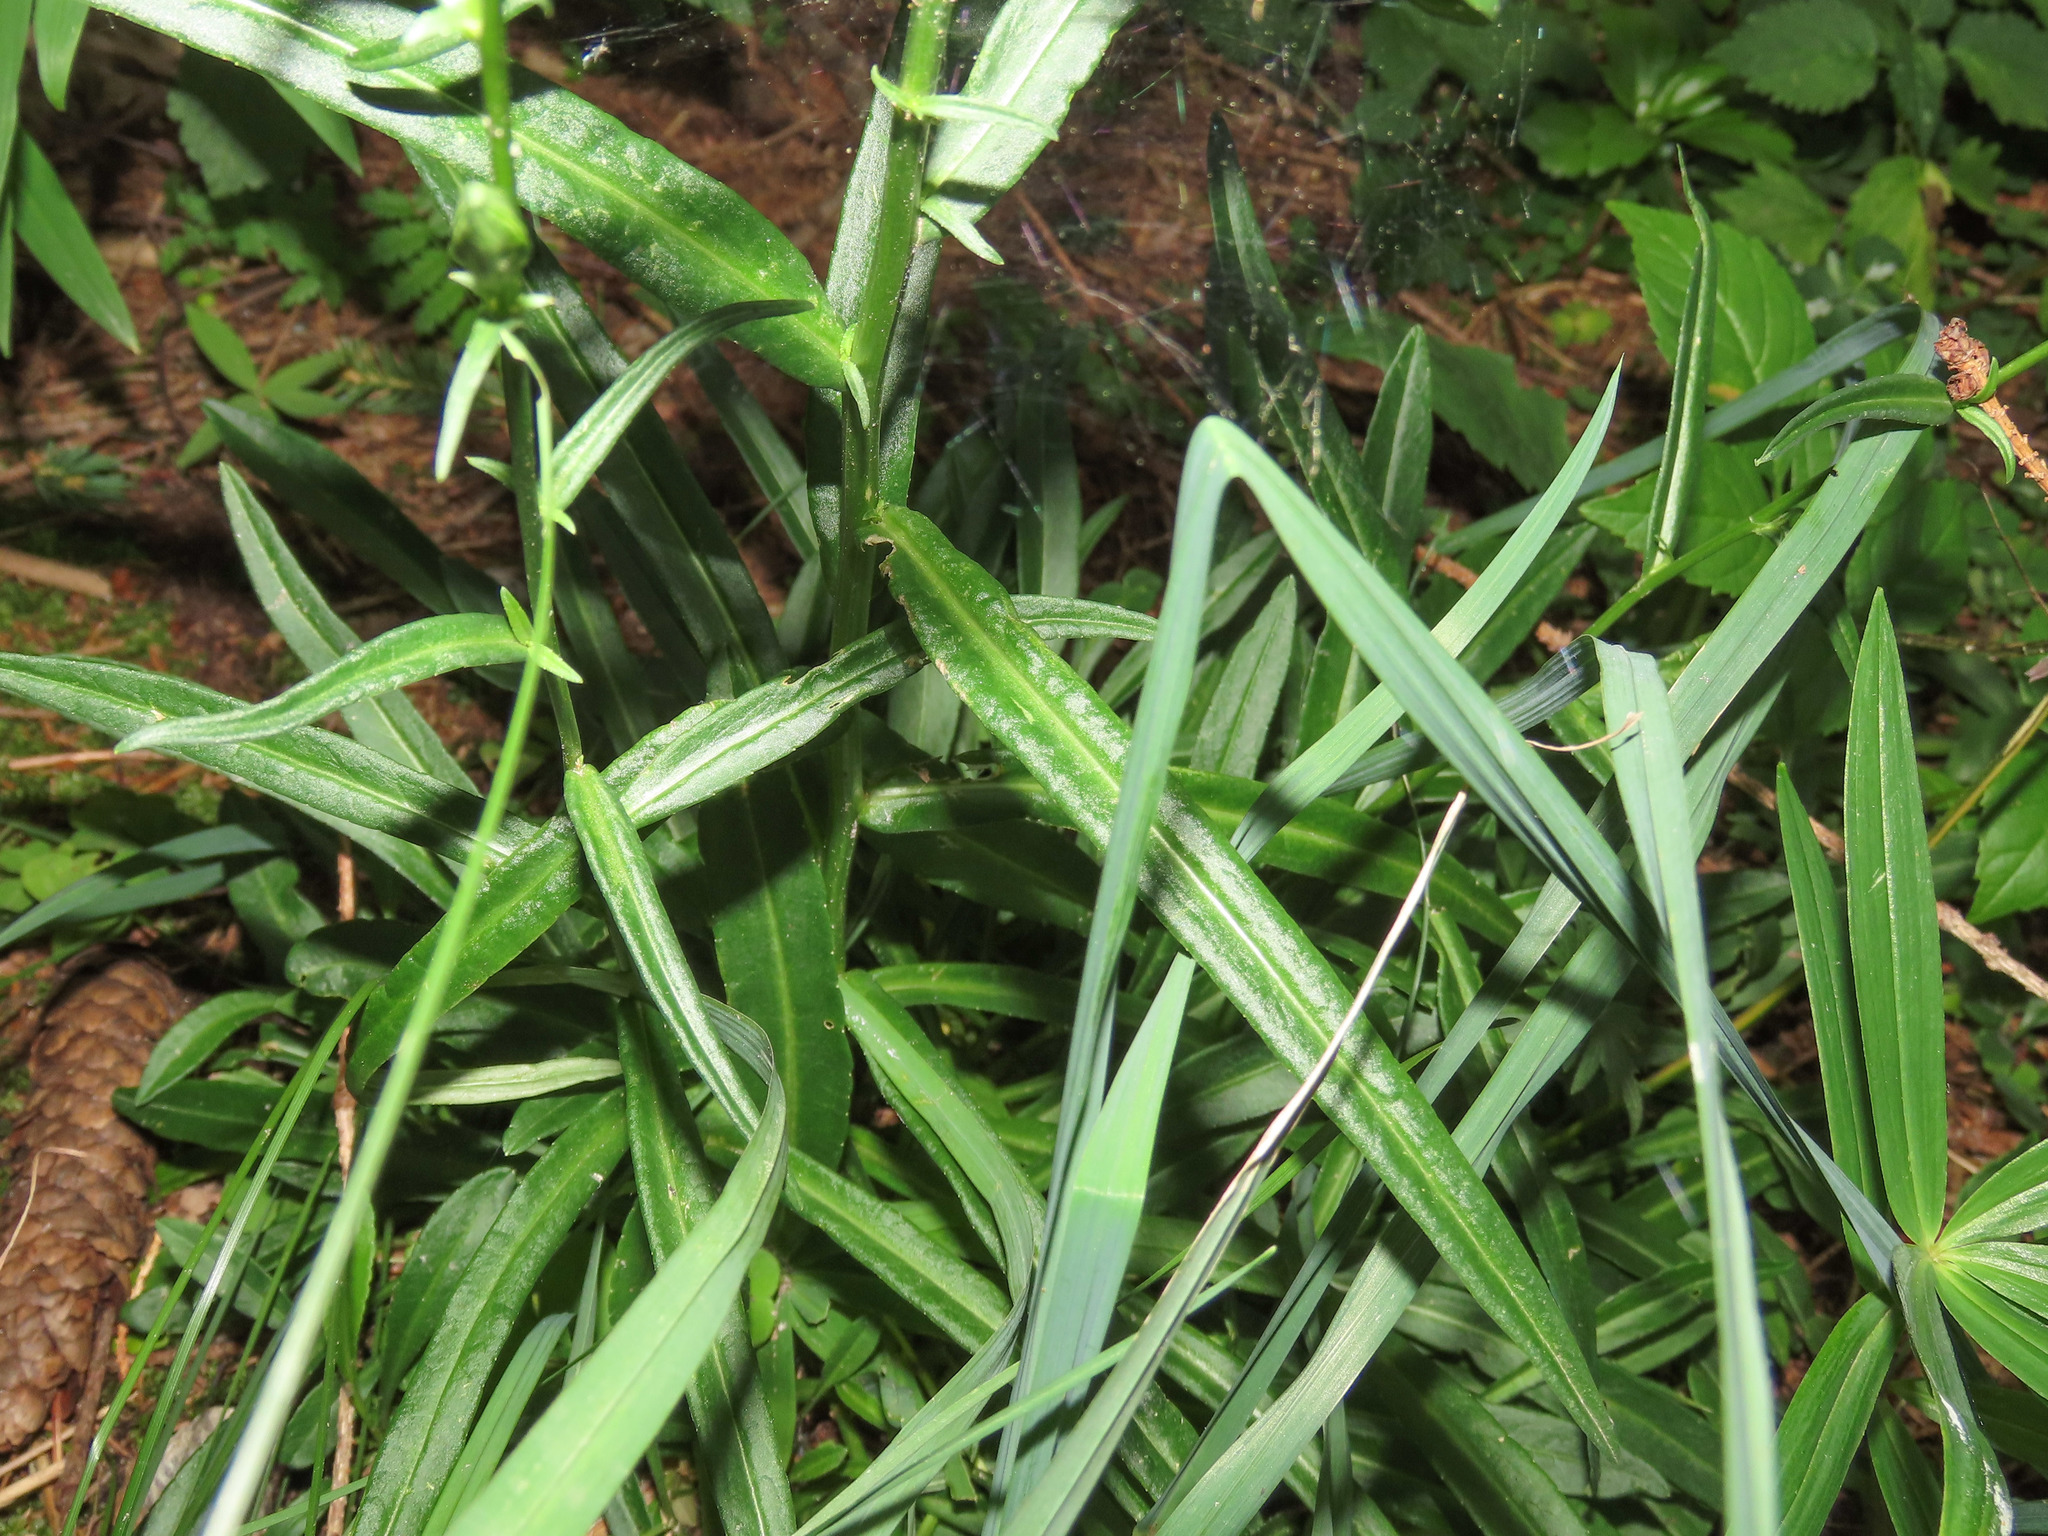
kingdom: Plantae
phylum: Tracheophyta
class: Magnoliopsida
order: Asterales
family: Campanulaceae
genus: Campanula
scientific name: Campanula persicifolia
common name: Peach-leaved bellflower
